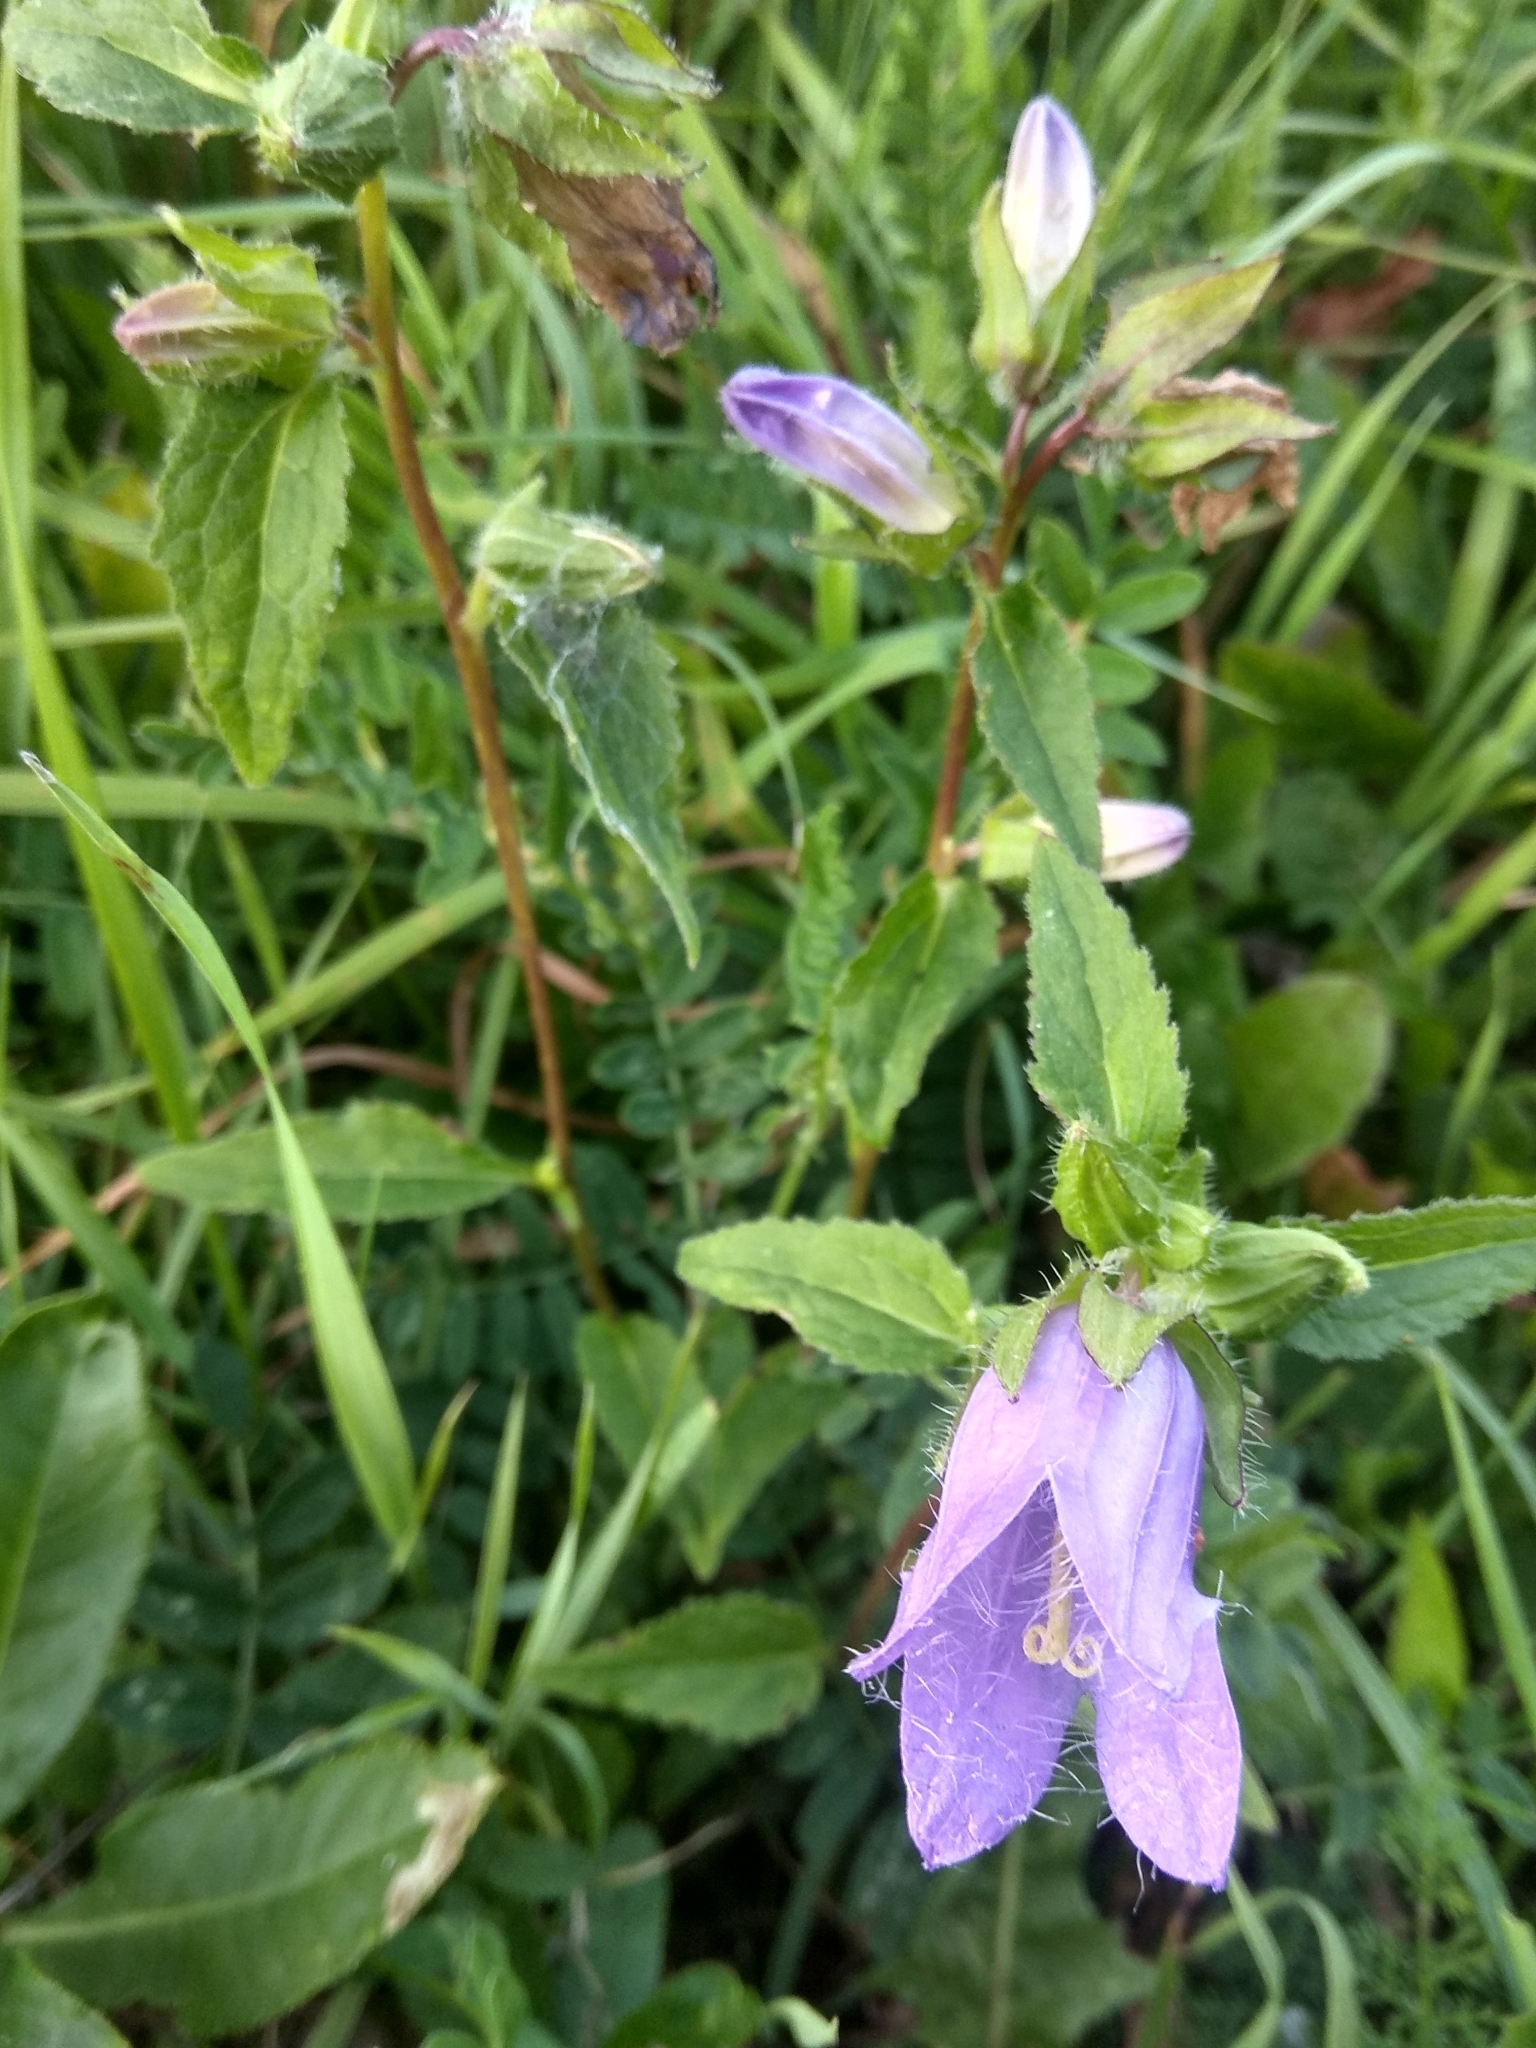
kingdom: Plantae
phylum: Tracheophyta
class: Magnoliopsida
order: Asterales
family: Campanulaceae
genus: Campanula
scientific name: Campanula trachelium
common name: Nettle-leaved bellflower
